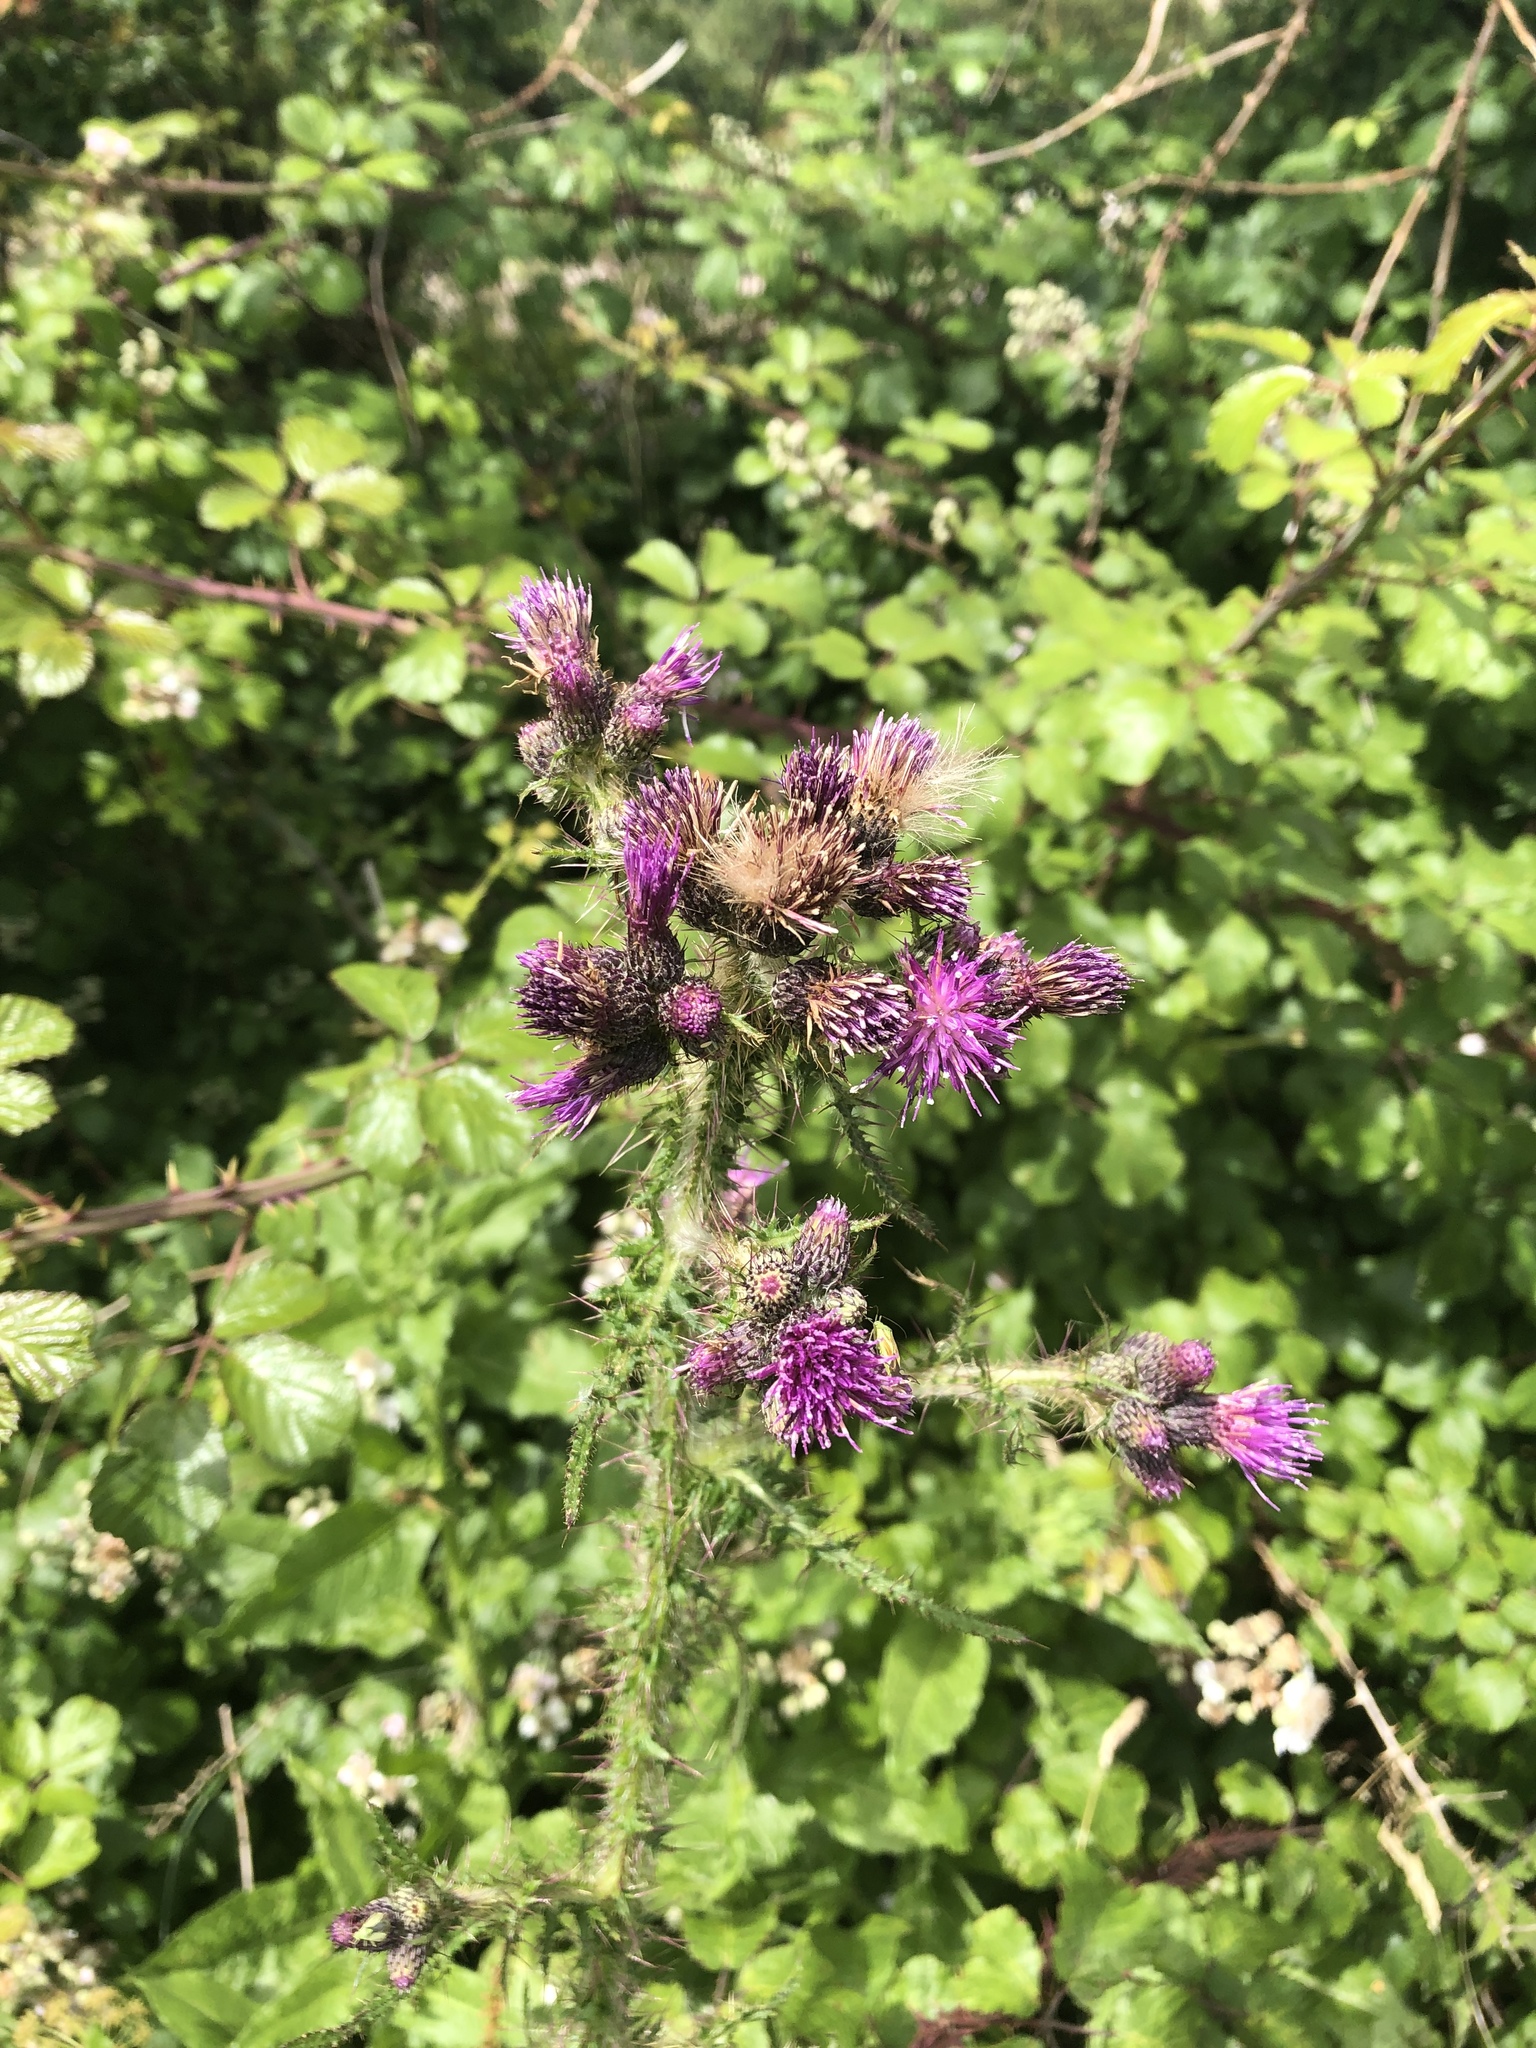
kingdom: Plantae
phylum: Tracheophyta
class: Magnoliopsida
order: Asterales
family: Asteraceae
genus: Cirsium
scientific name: Cirsium palustre
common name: Marsh thistle
